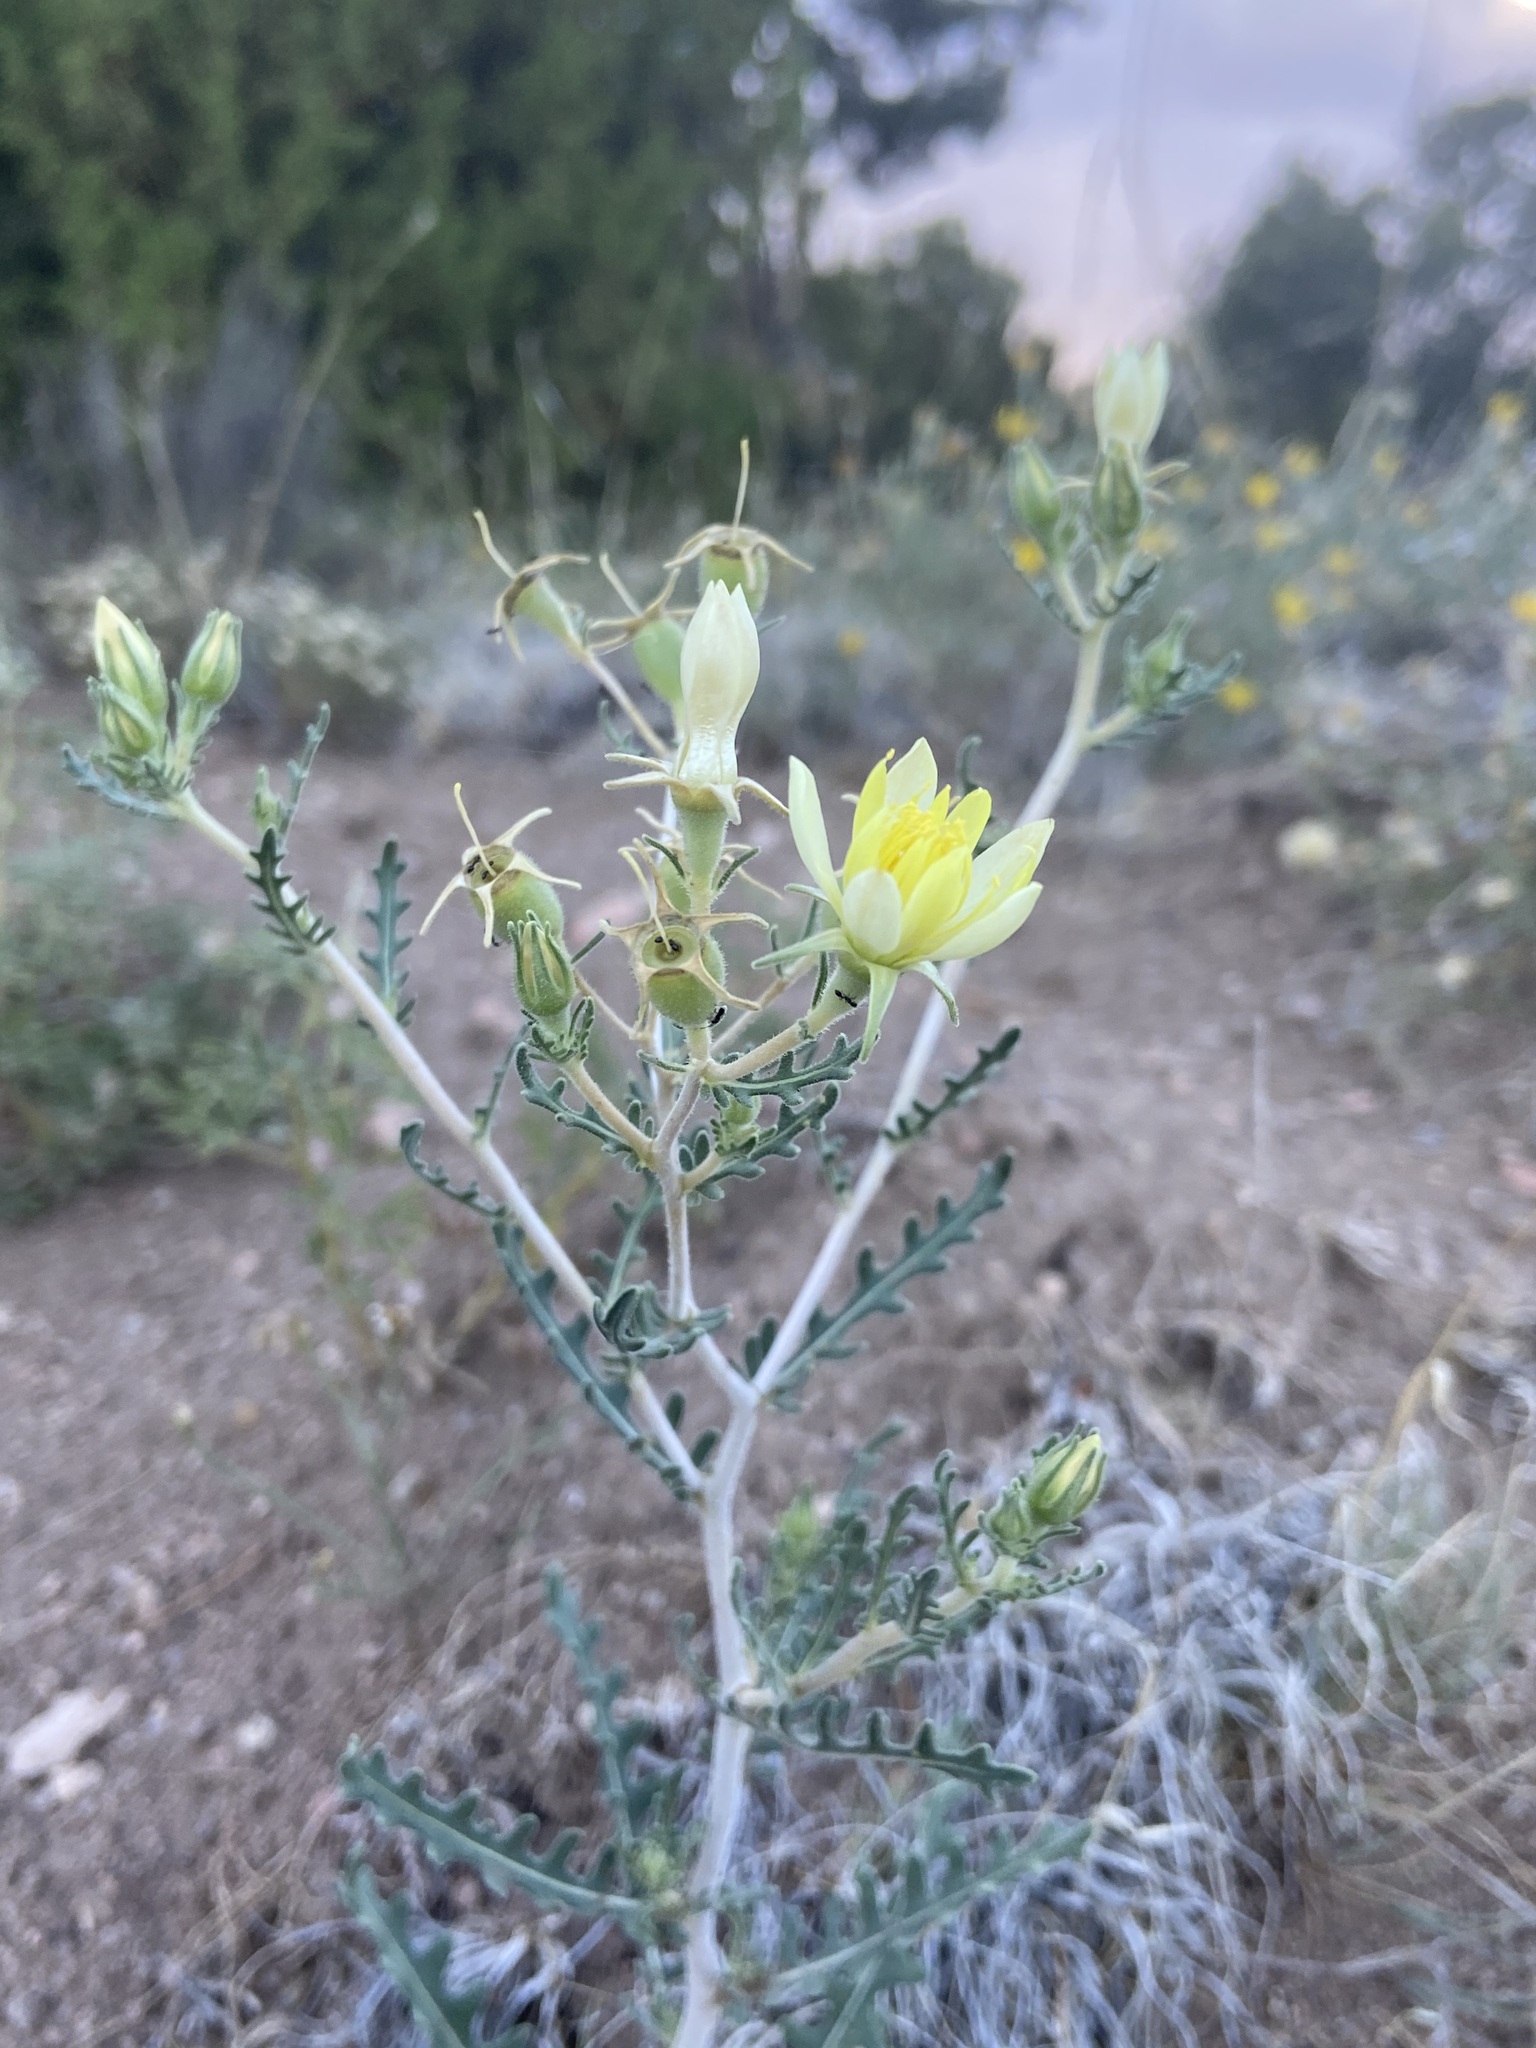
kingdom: Plantae
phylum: Tracheophyta
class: Magnoliopsida
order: Cornales
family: Loasaceae
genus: Mentzelia
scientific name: Mentzelia procera
